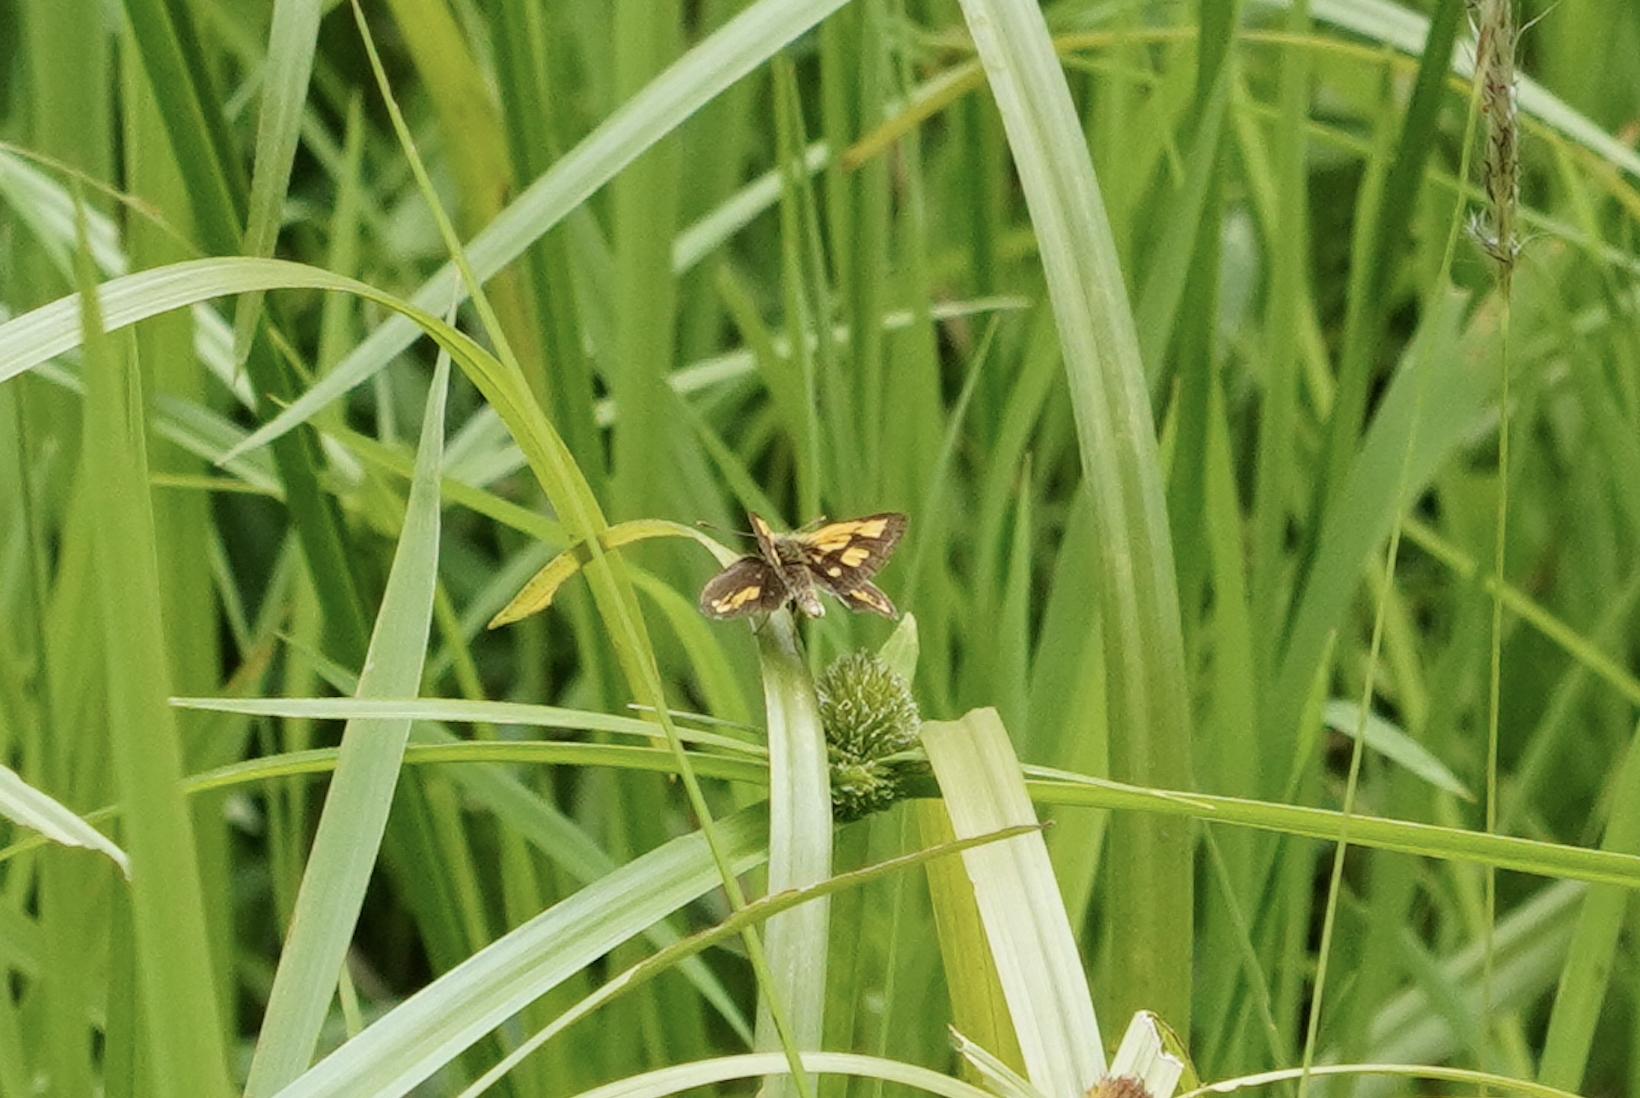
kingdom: Animalia
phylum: Arthropoda
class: Insecta
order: Lepidoptera
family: Hesperiidae
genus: Ampittia
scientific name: Ampittia dioscorides
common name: Common bush hopper
